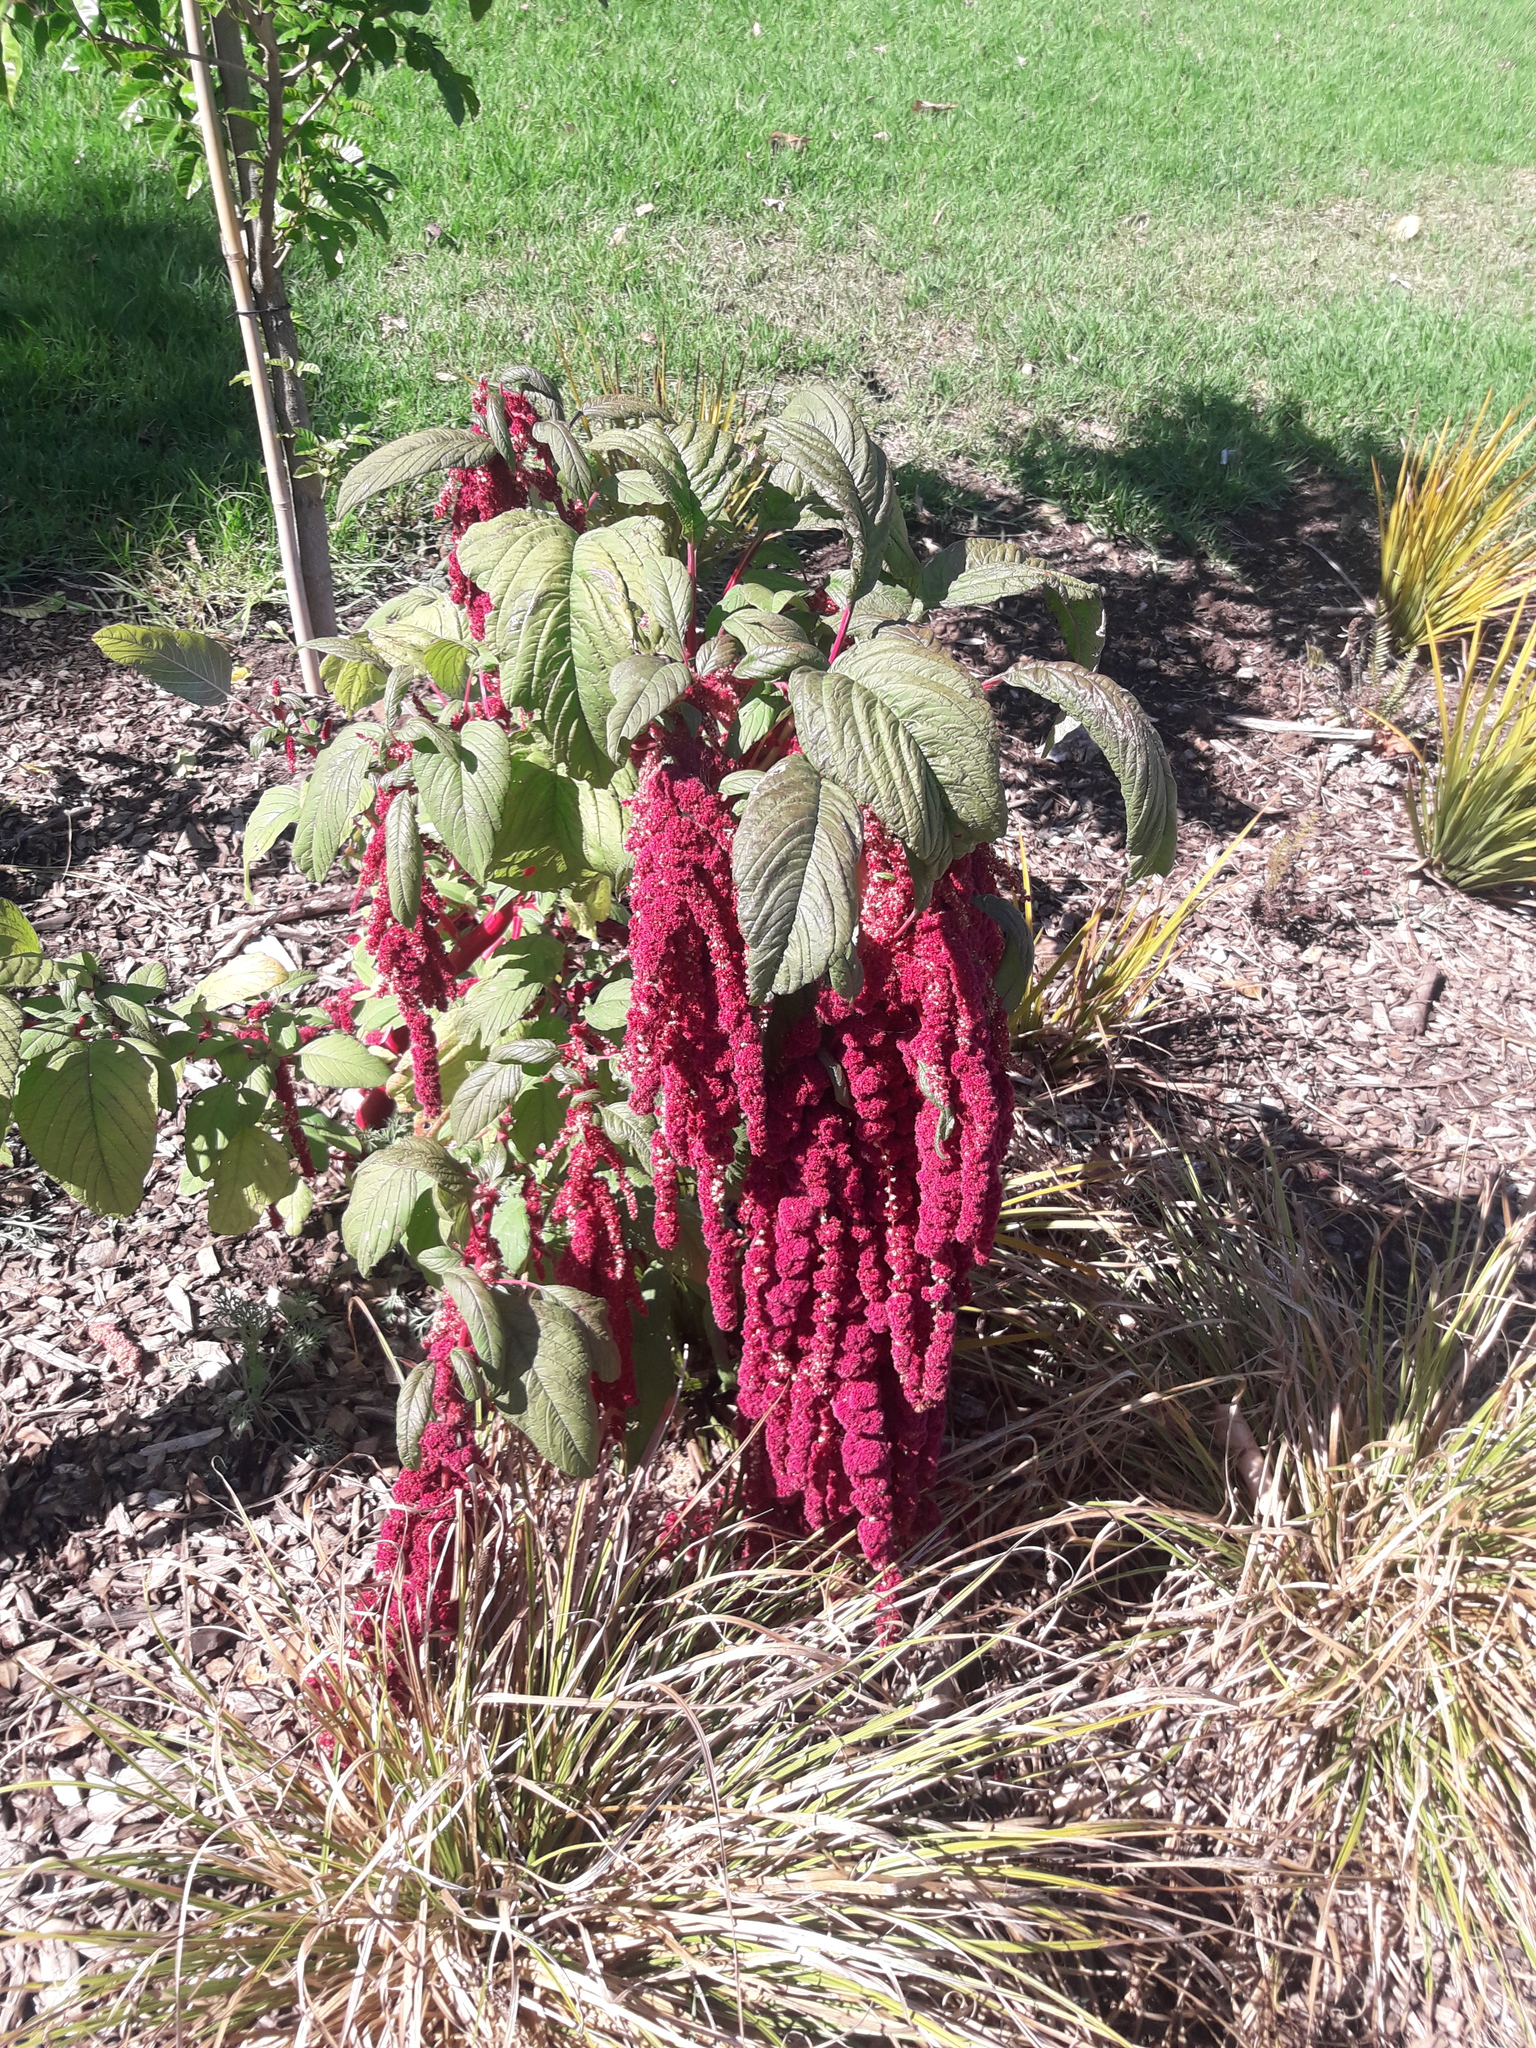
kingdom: Plantae
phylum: Tracheophyta
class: Magnoliopsida
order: Caryophyllales
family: Amaranthaceae
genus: Amaranthus
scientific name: Amaranthus caudatus
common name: Love-lies-bleeding
